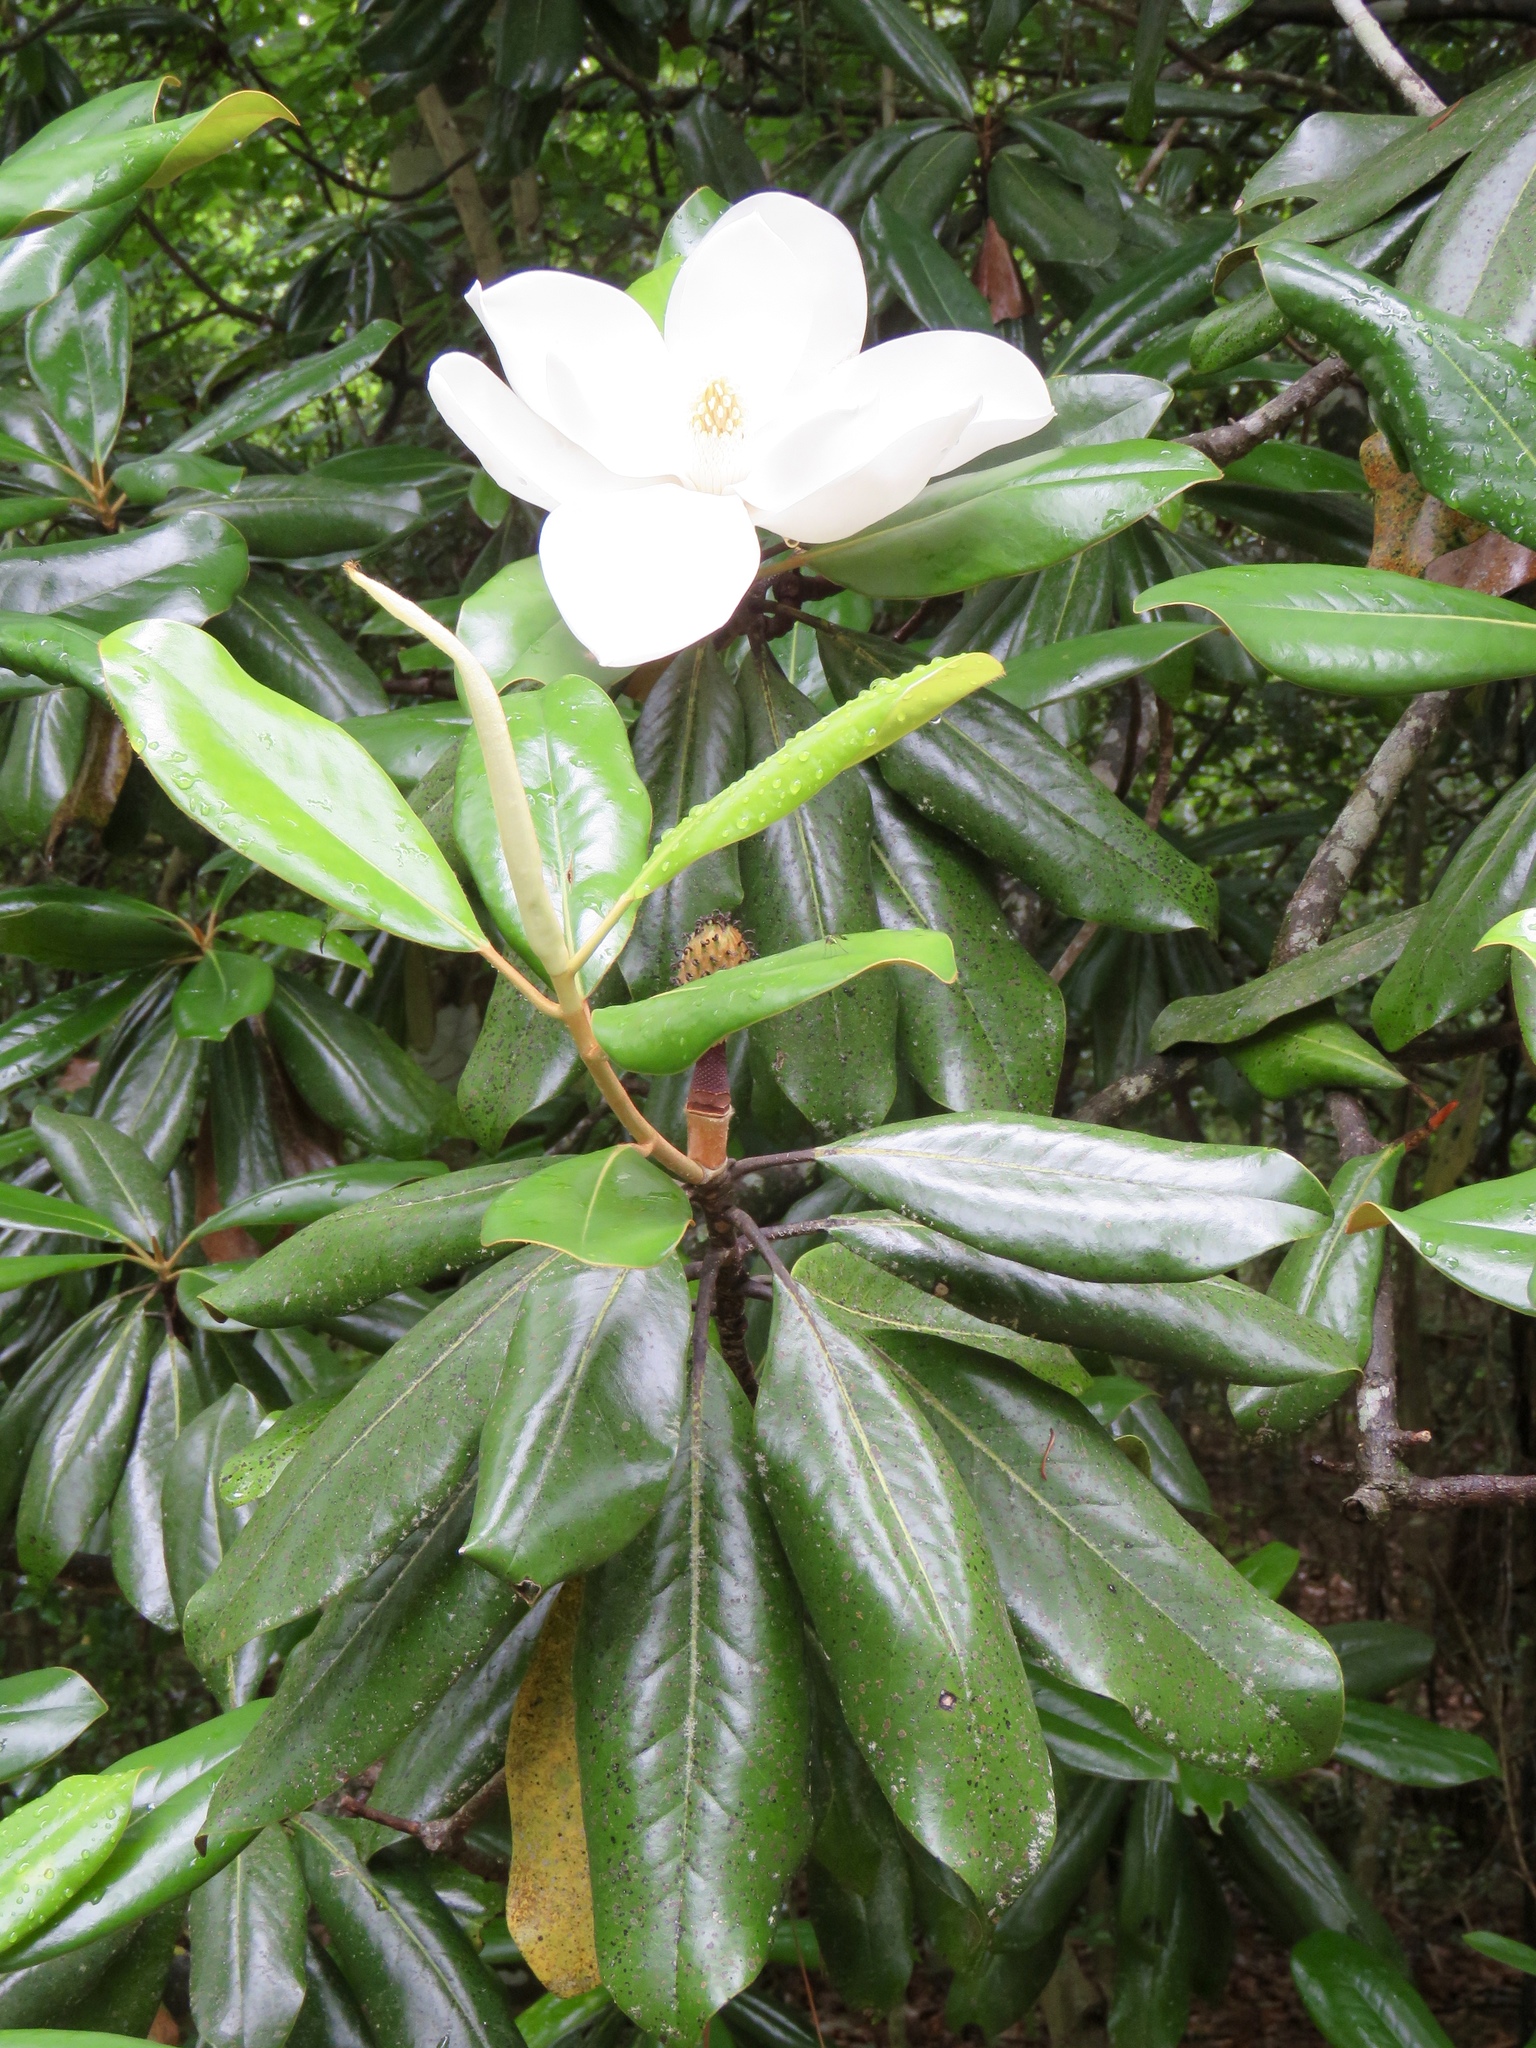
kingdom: Plantae
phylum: Tracheophyta
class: Magnoliopsida
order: Magnoliales
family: Magnoliaceae
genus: Magnolia
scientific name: Magnolia grandiflora
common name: Southern magnolia
